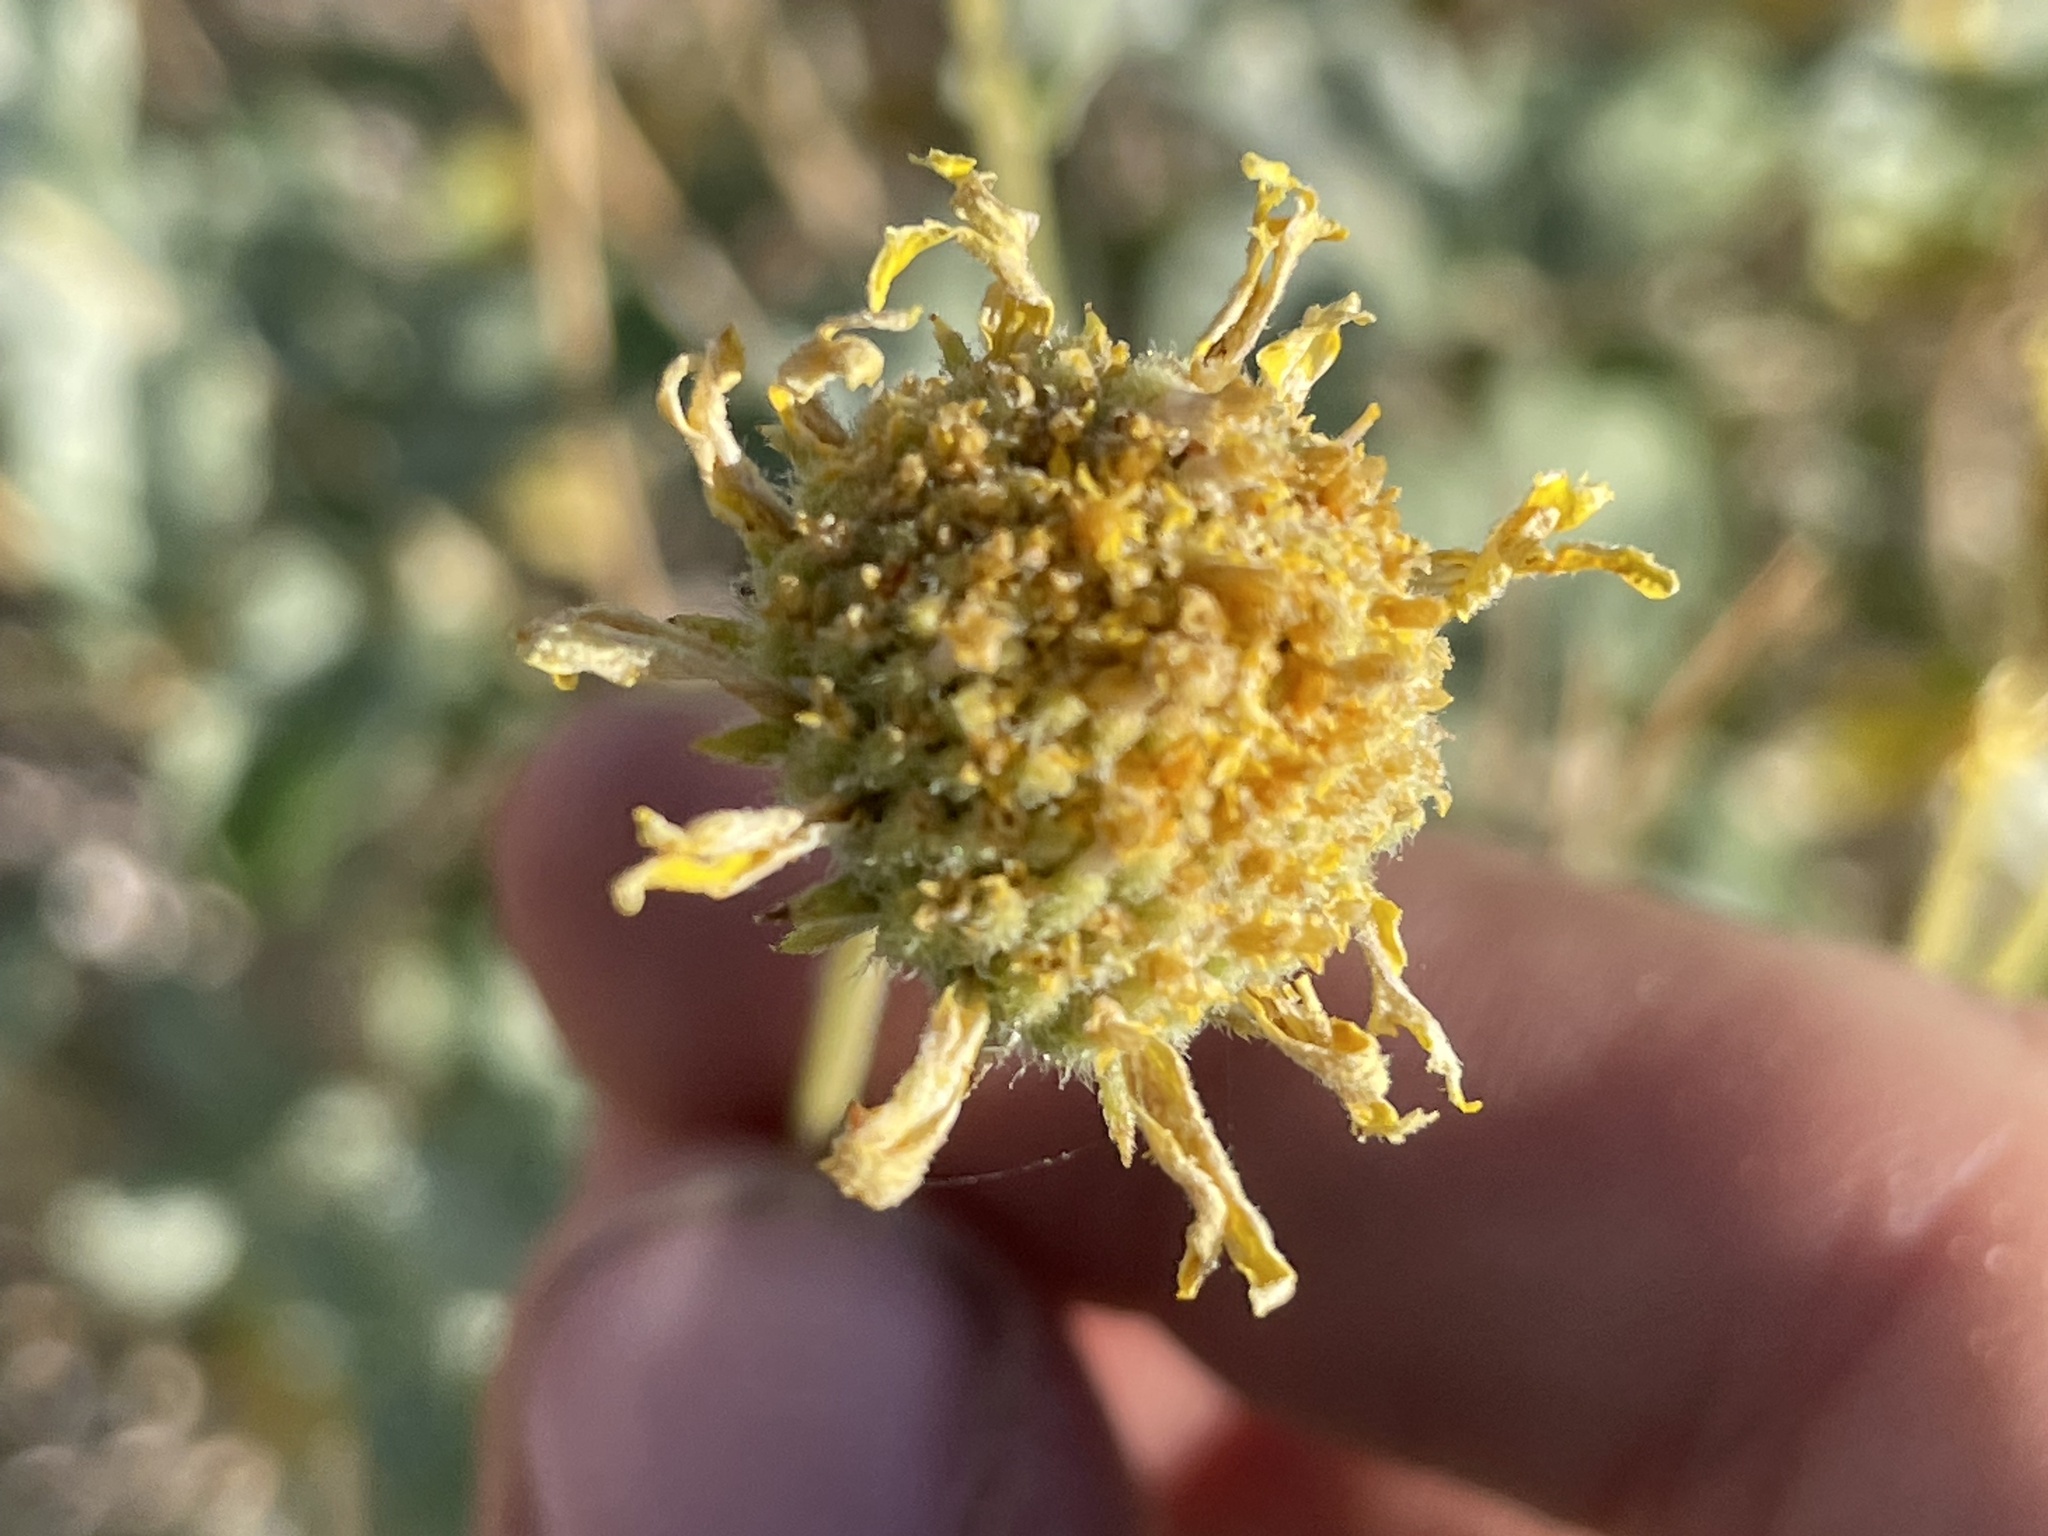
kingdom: Plantae
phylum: Tracheophyta
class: Magnoliopsida
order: Asterales
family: Asteraceae
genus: Encelia
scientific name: Encelia virginensis
